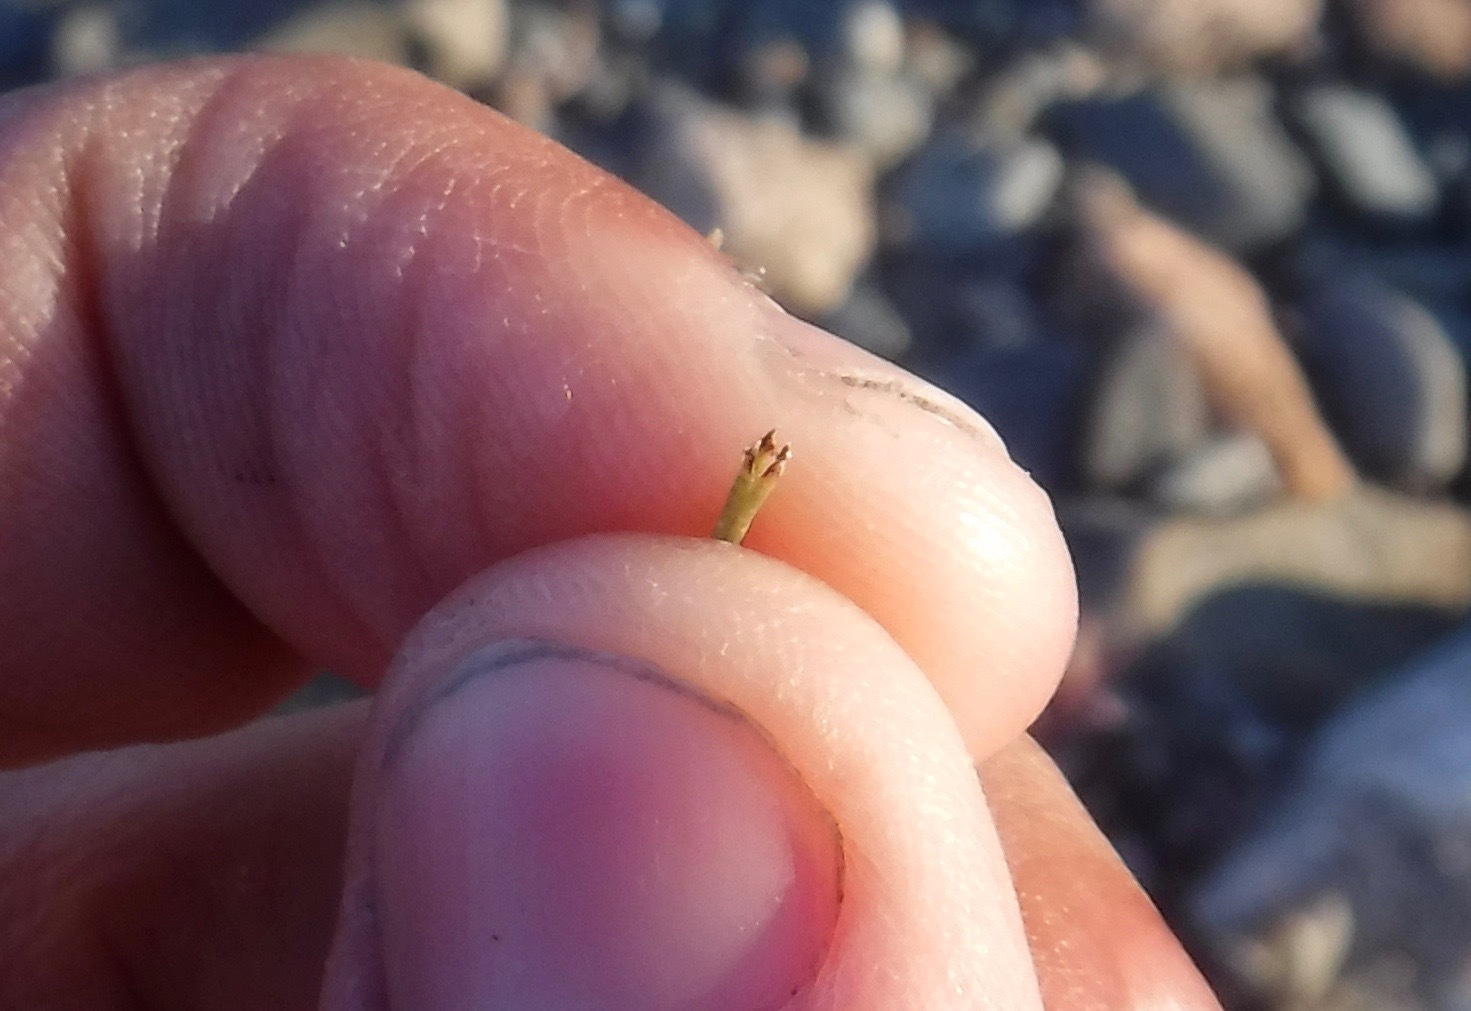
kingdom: Plantae
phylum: Tracheophyta
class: Polypodiopsida
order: Equisetales
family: Equisetaceae
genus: Equisetum
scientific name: Equisetum variegatum
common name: Variegated horsetail
